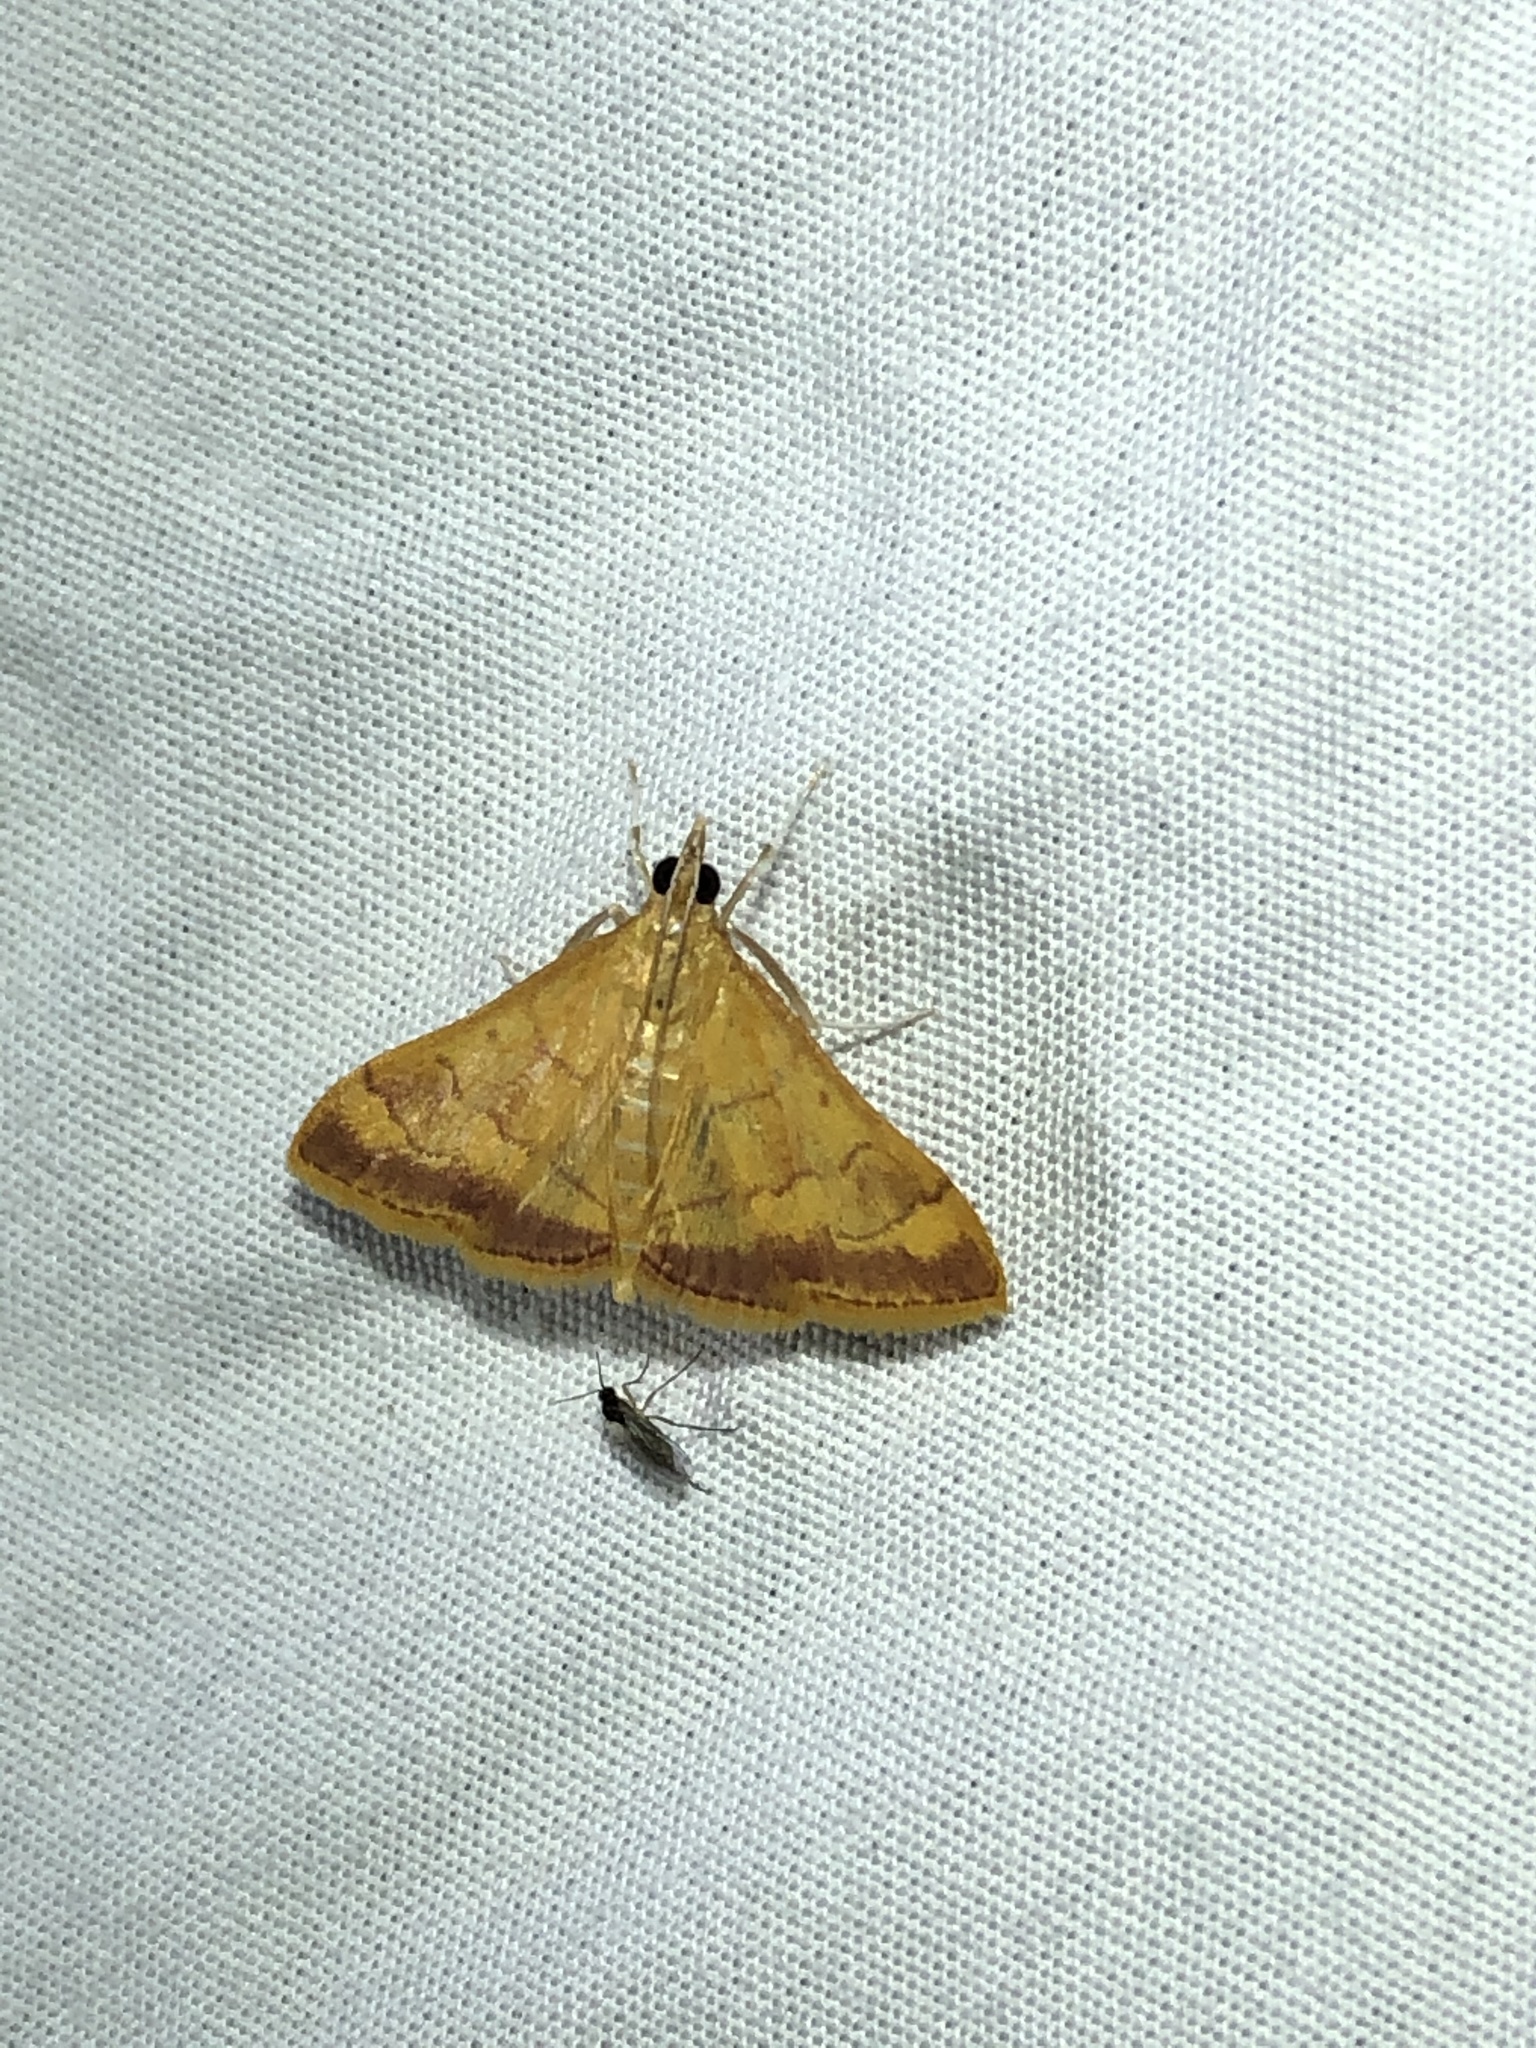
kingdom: Animalia
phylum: Arthropoda
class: Insecta
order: Lepidoptera
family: Crambidae
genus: Pyrausta
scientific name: Pyrausta pseudonythesalis
